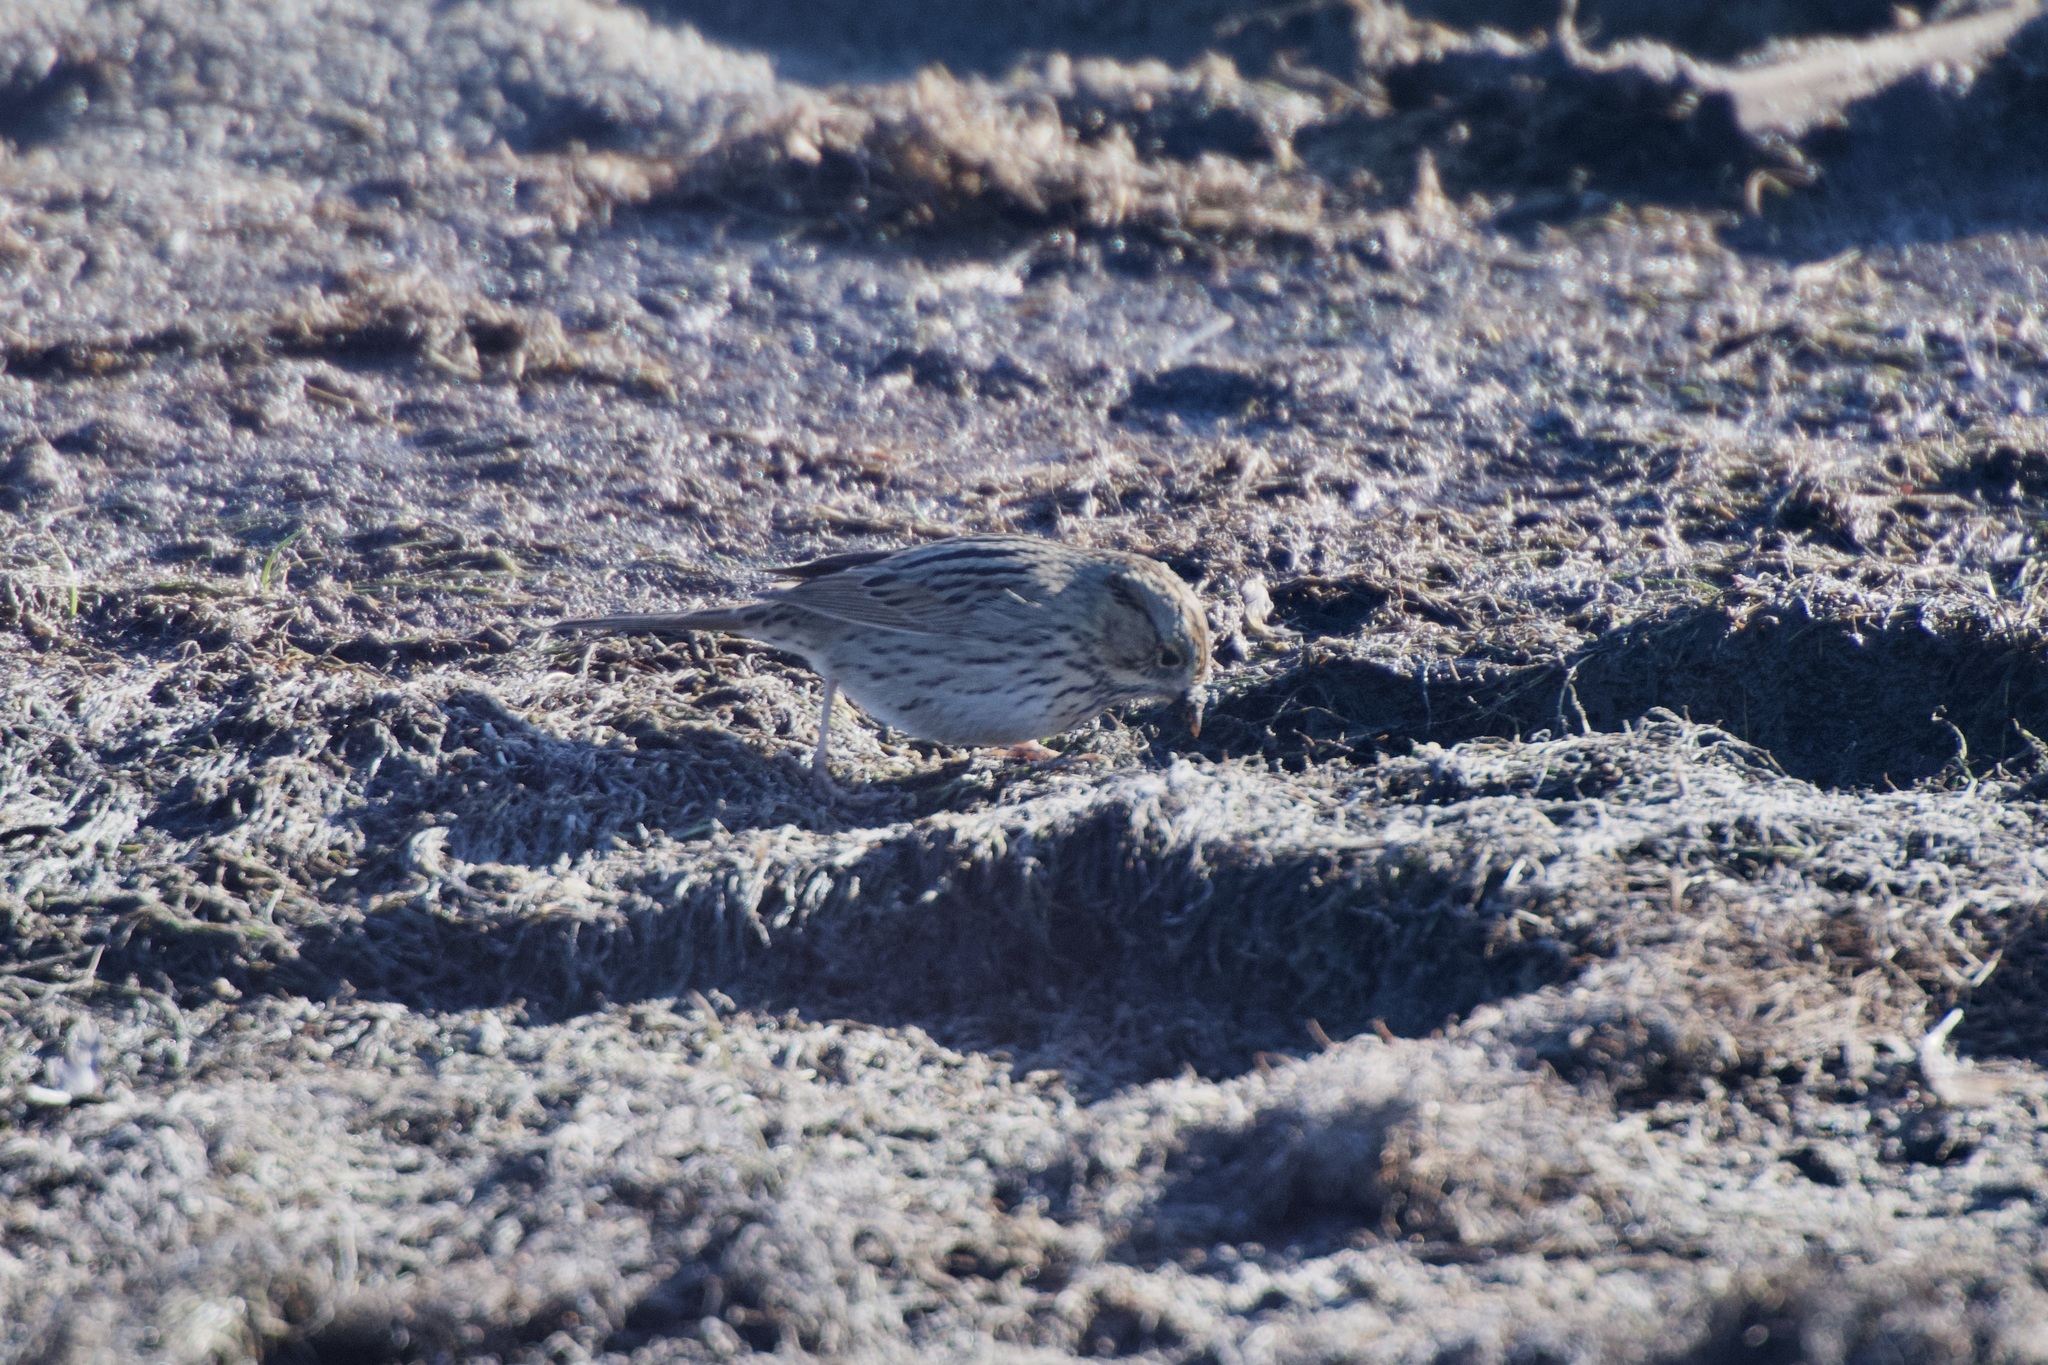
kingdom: Animalia
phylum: Chordata
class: Aves
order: Passeriformes
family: Passerellidae
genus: Melospiza
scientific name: Melospiza lincolnii
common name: Lincoln's sparrow
